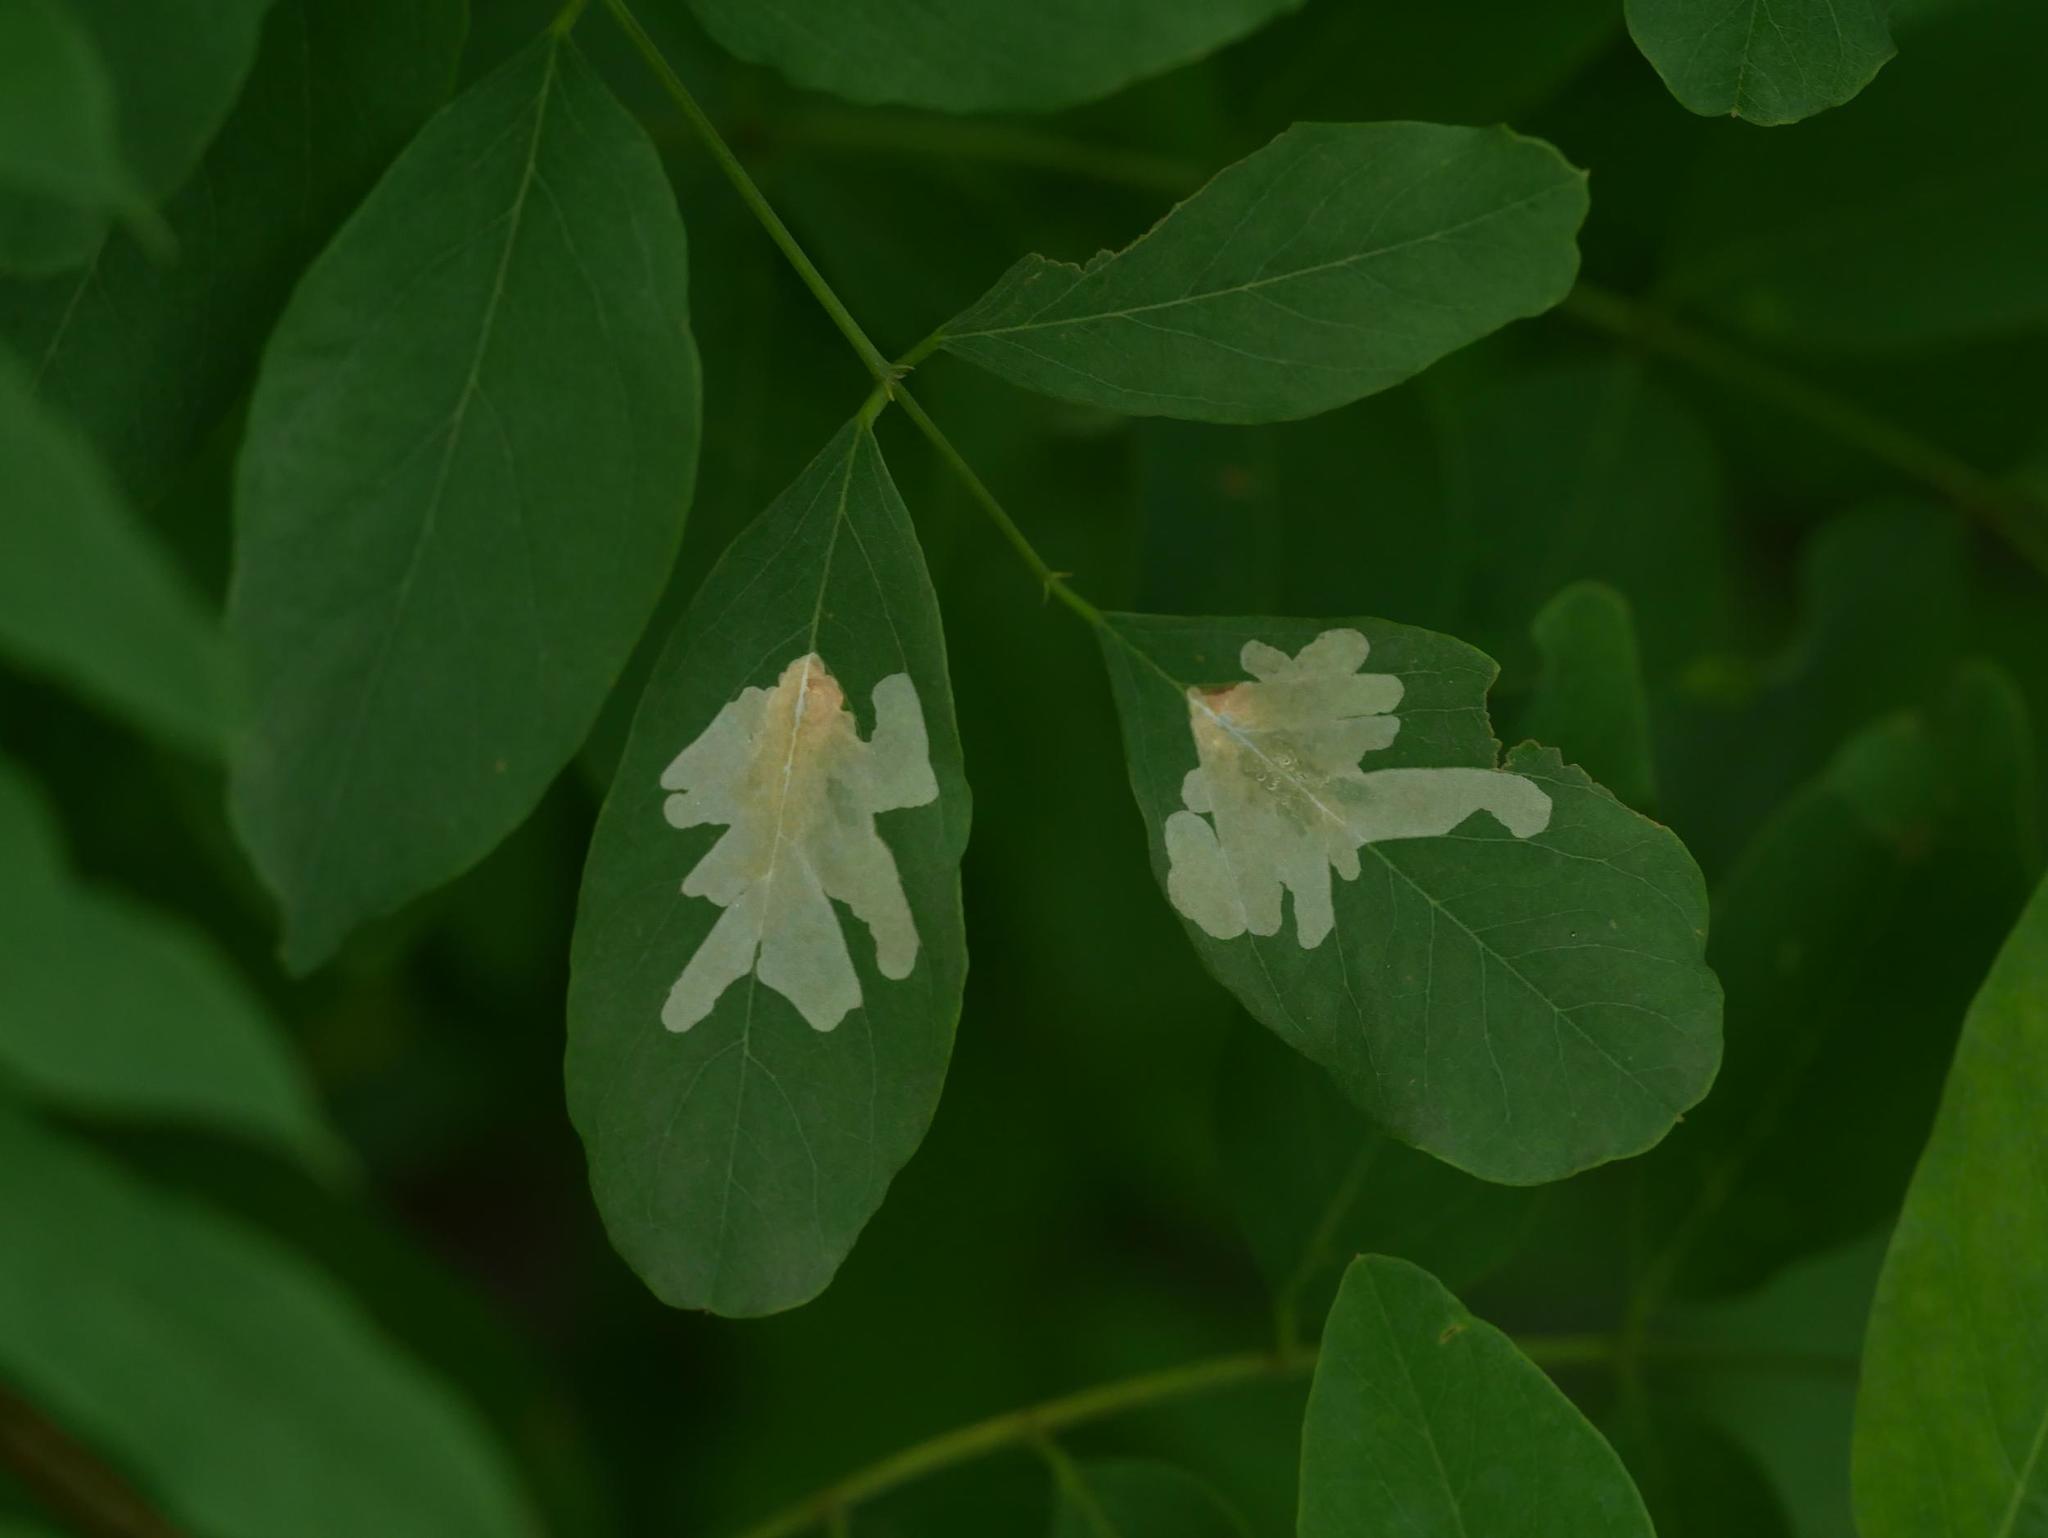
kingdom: Animalia
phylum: Arthropoda
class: Insecta
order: Lepidoptera
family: Gracillariidae
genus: Parectopa
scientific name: Parectopa robiniella
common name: Locust digitate leafminer
